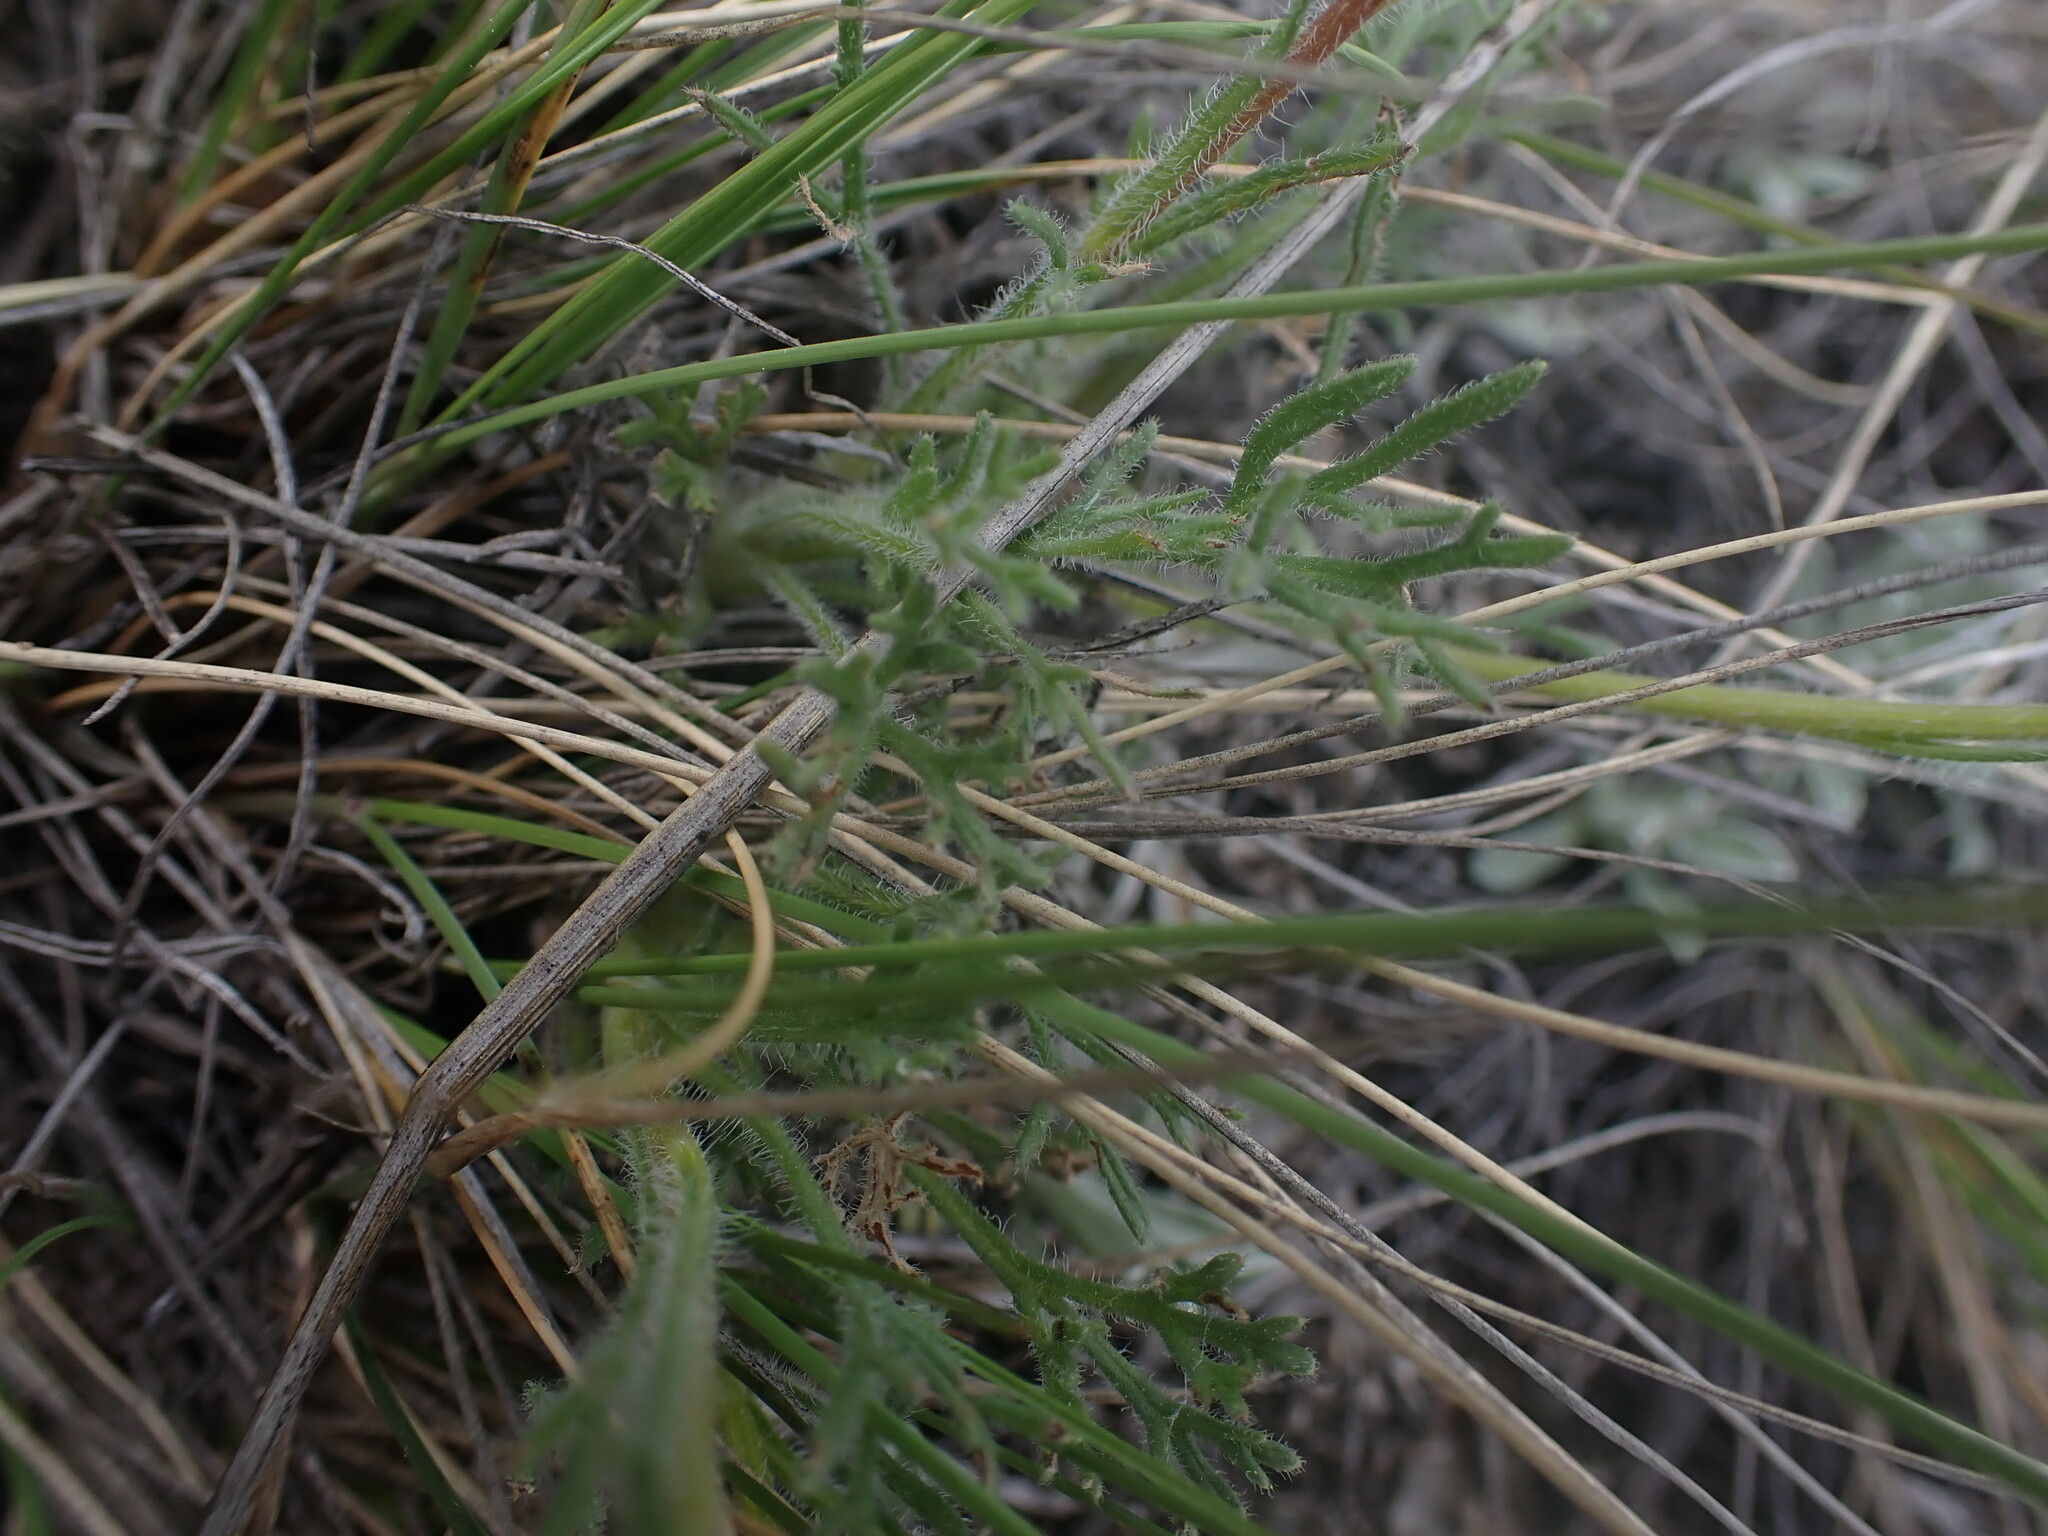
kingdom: Plantae
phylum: Tracheophyta
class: Magnoliopsida
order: Asterales
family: Asteraceae
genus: Erigeron
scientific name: Erigeron compositus
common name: Dwarf mountain fleabane
